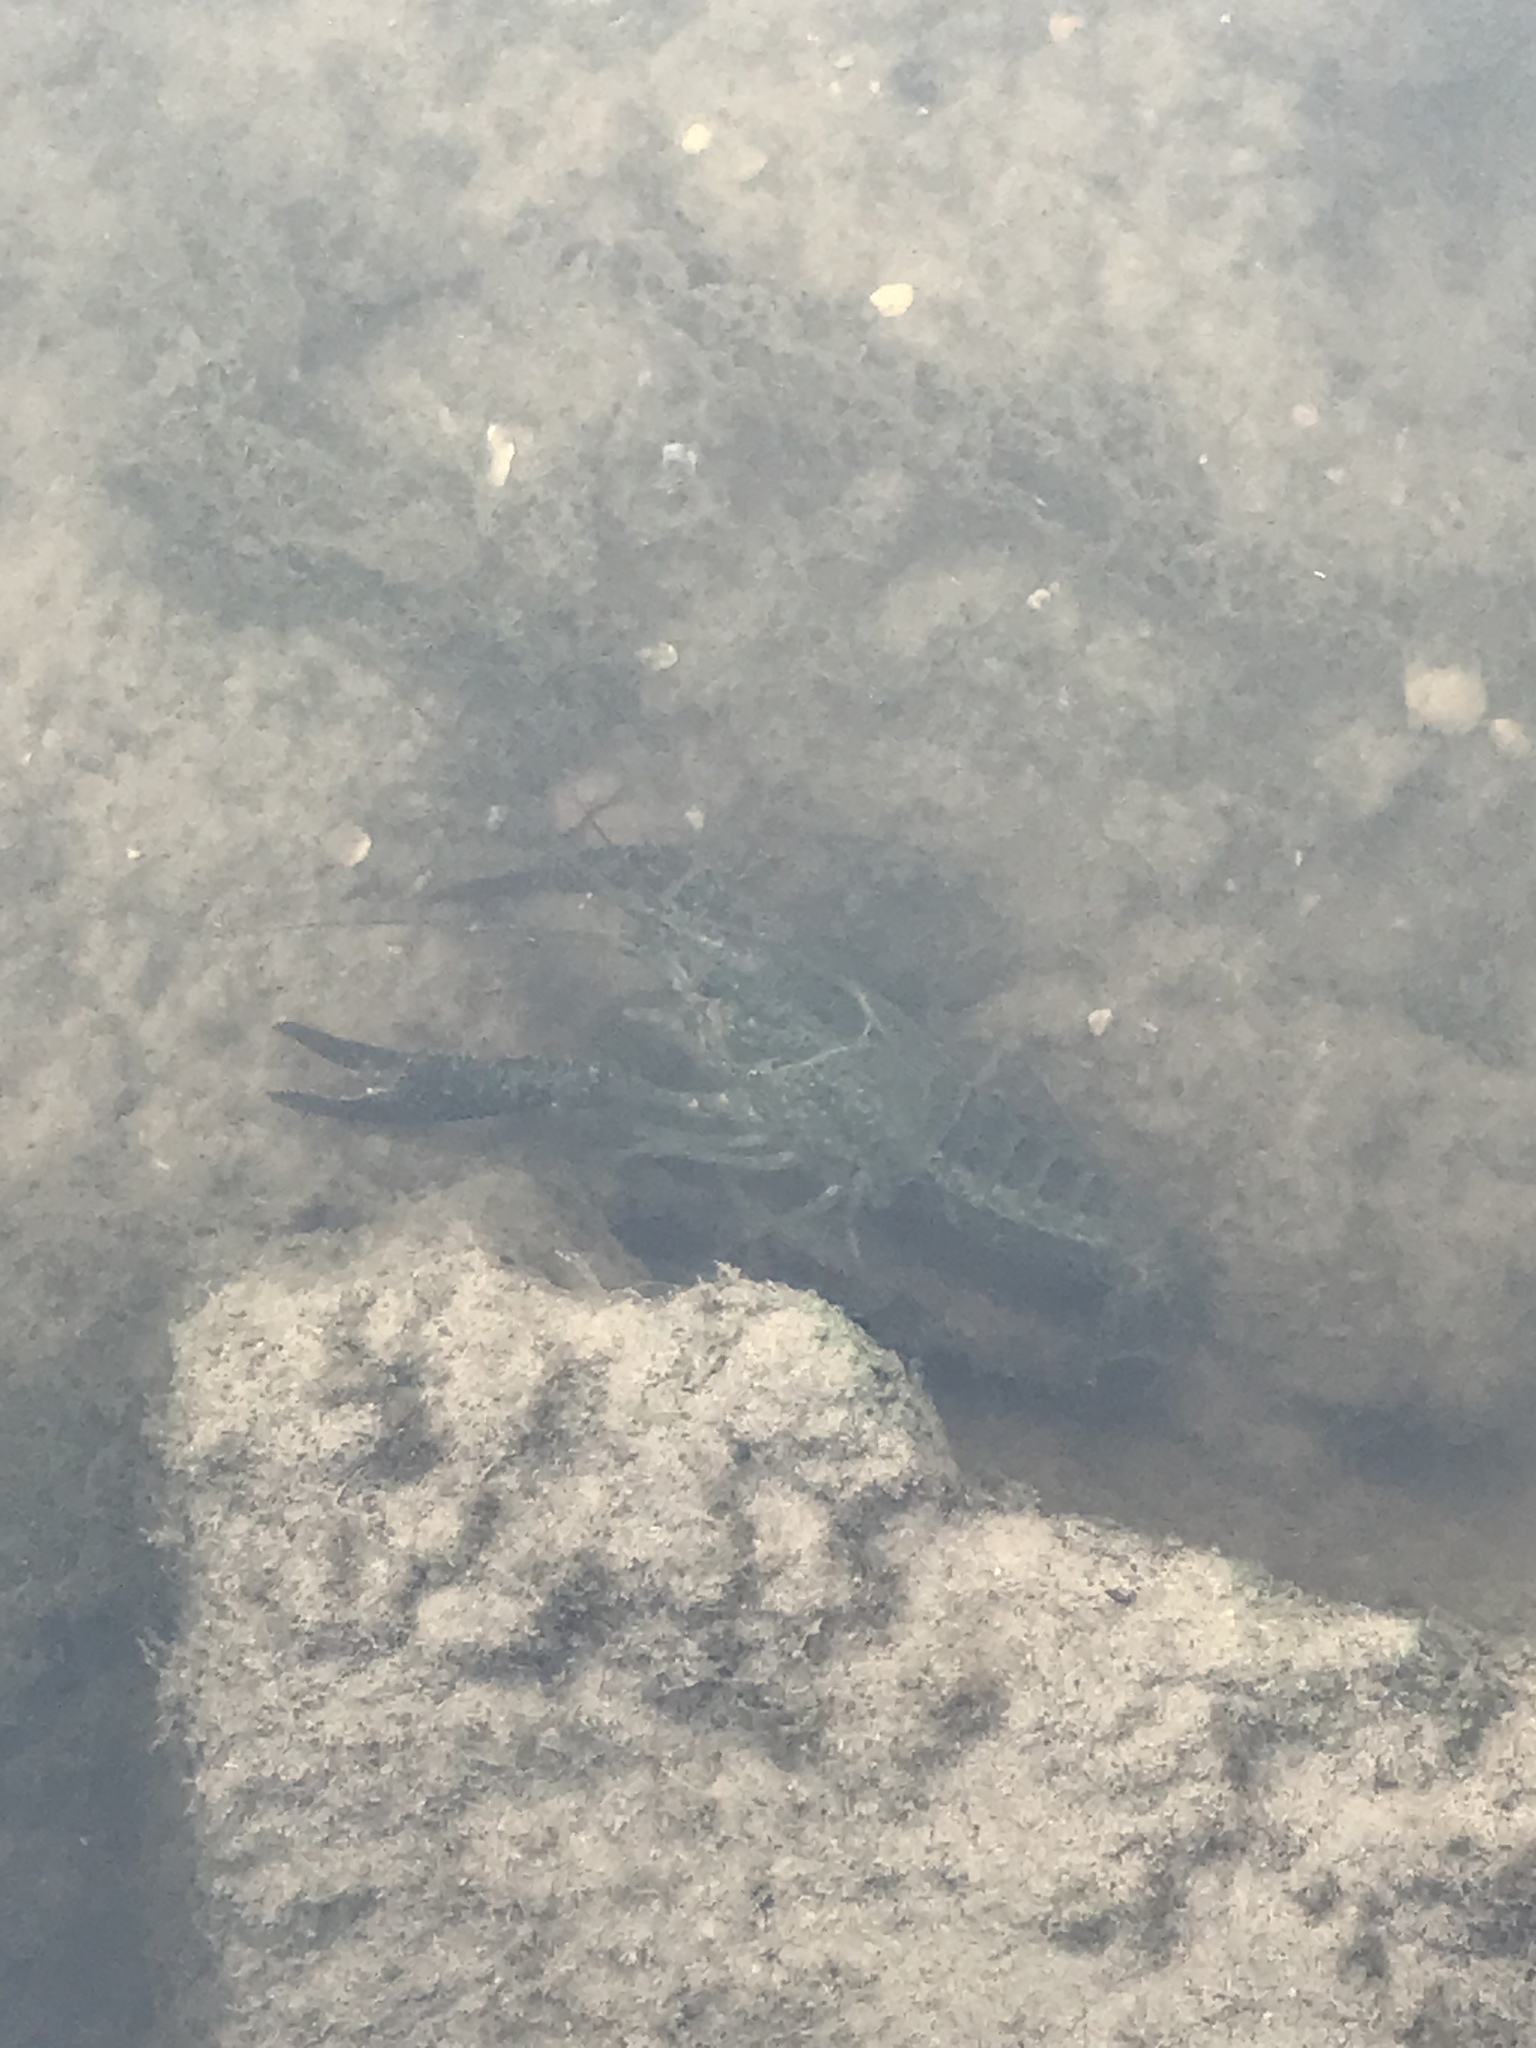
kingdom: Animalia
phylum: Arthropoda
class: Malacostraca
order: Decapoda
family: Cambaridae
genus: Procambarus
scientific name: Procambarus clarkii
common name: Red swamp crayfish
